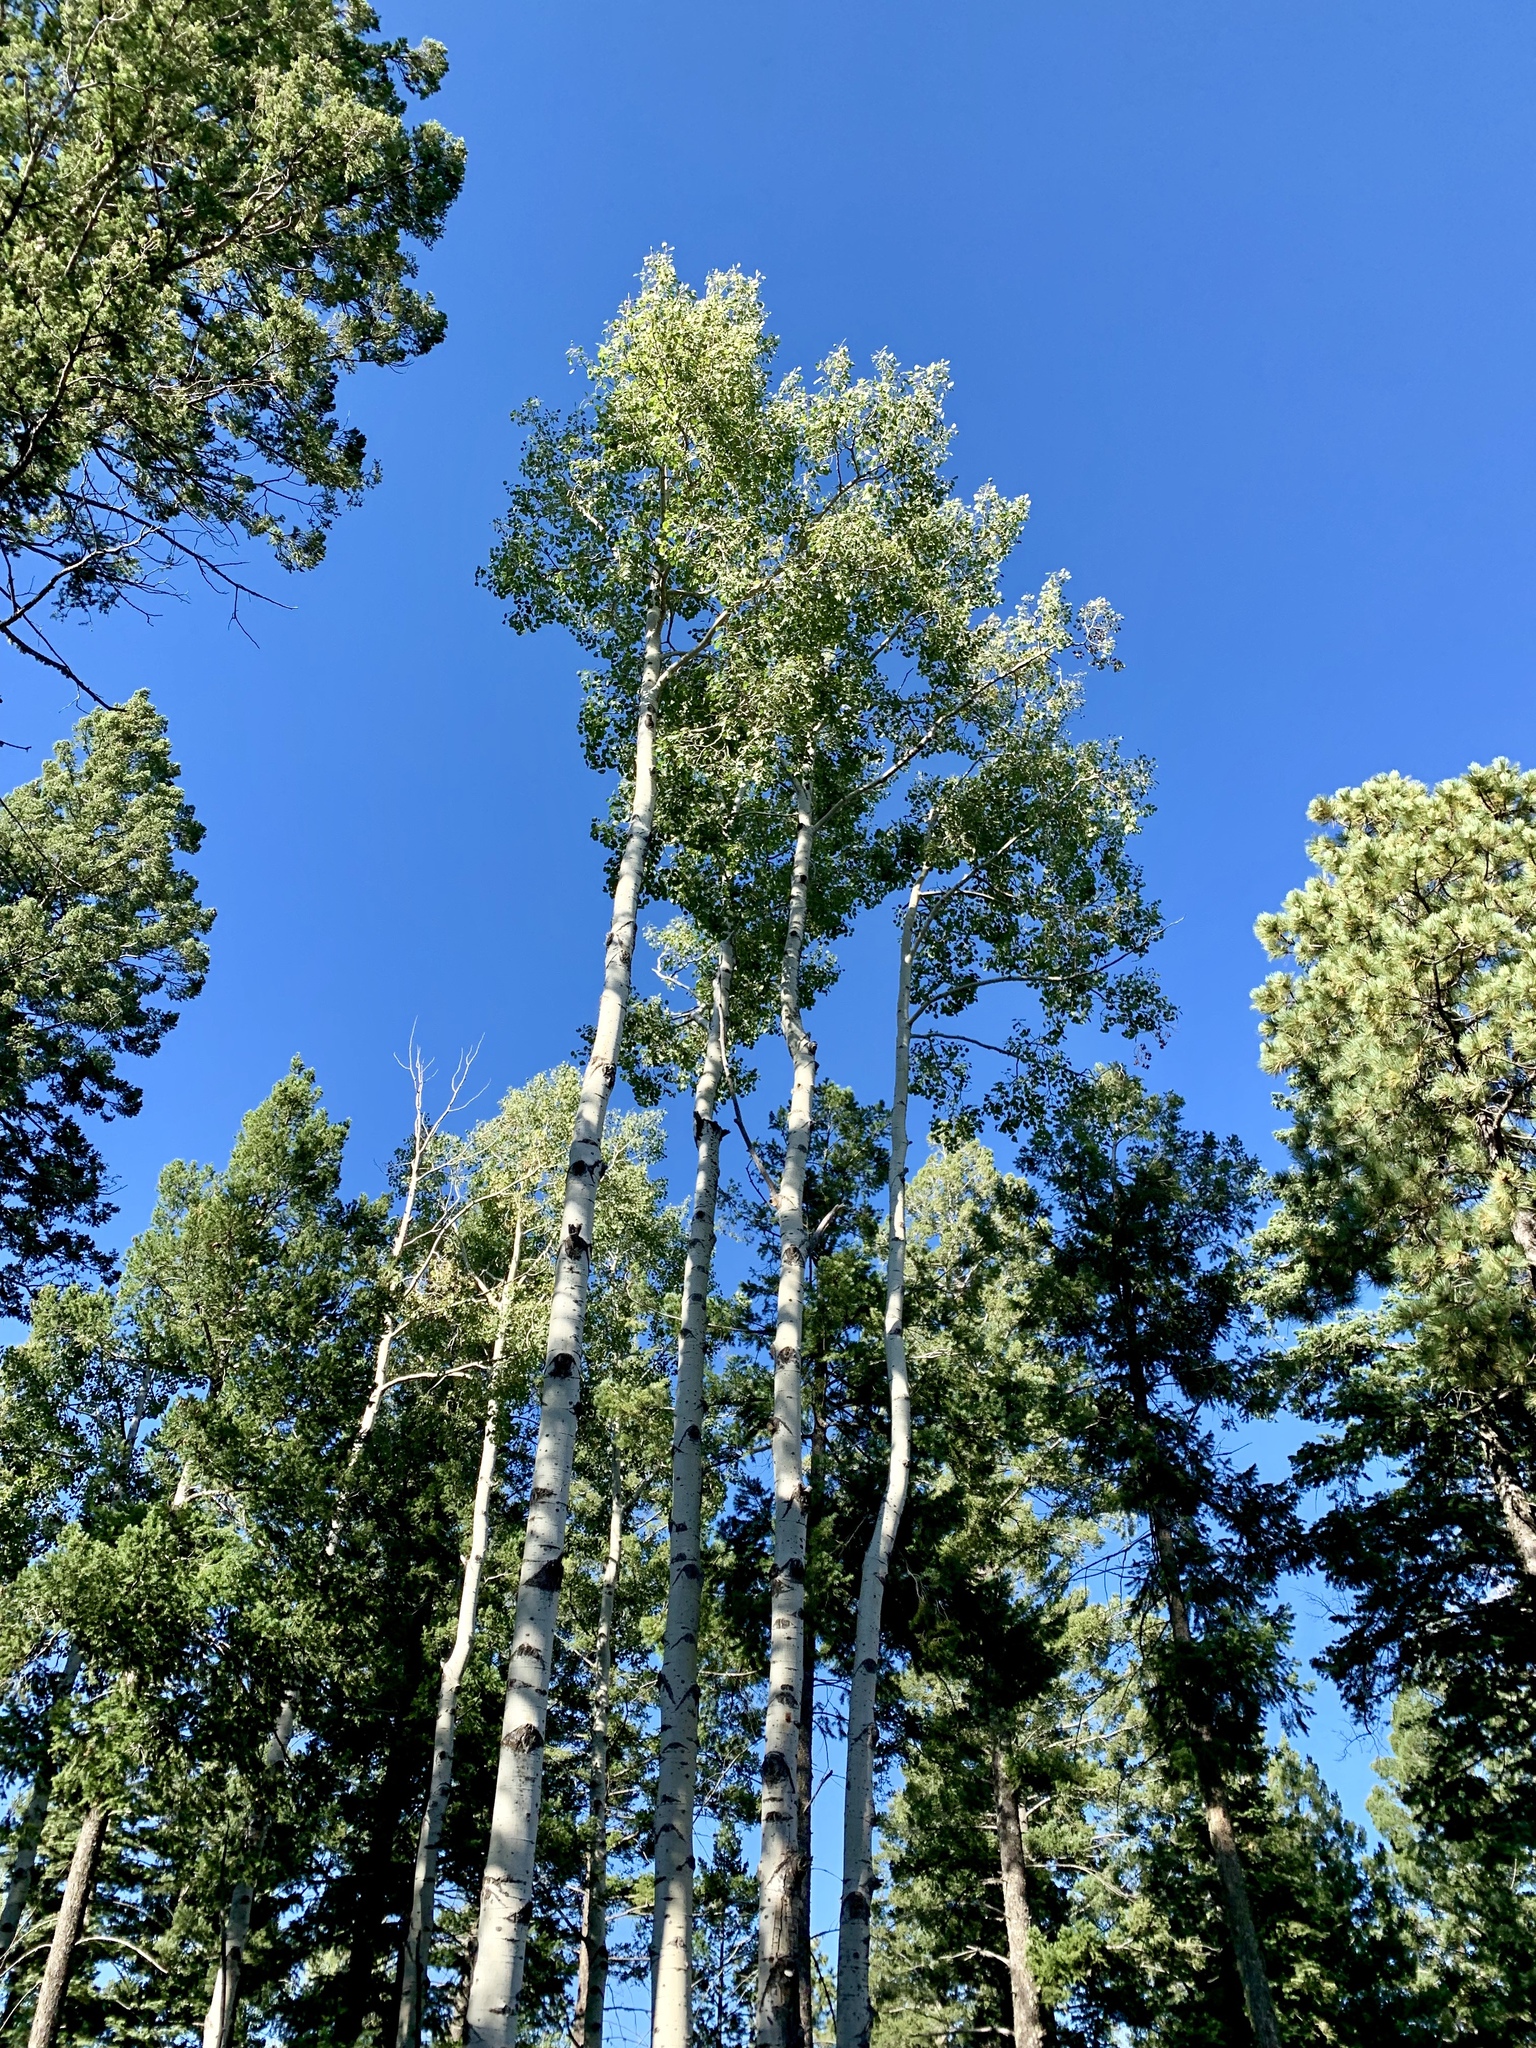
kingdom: Plantae
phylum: Tracheophyta
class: Magnoliopsida
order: Malpighiales
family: Salicaceae
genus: Populus
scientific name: Populus tremuloides
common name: Quaking aspen
